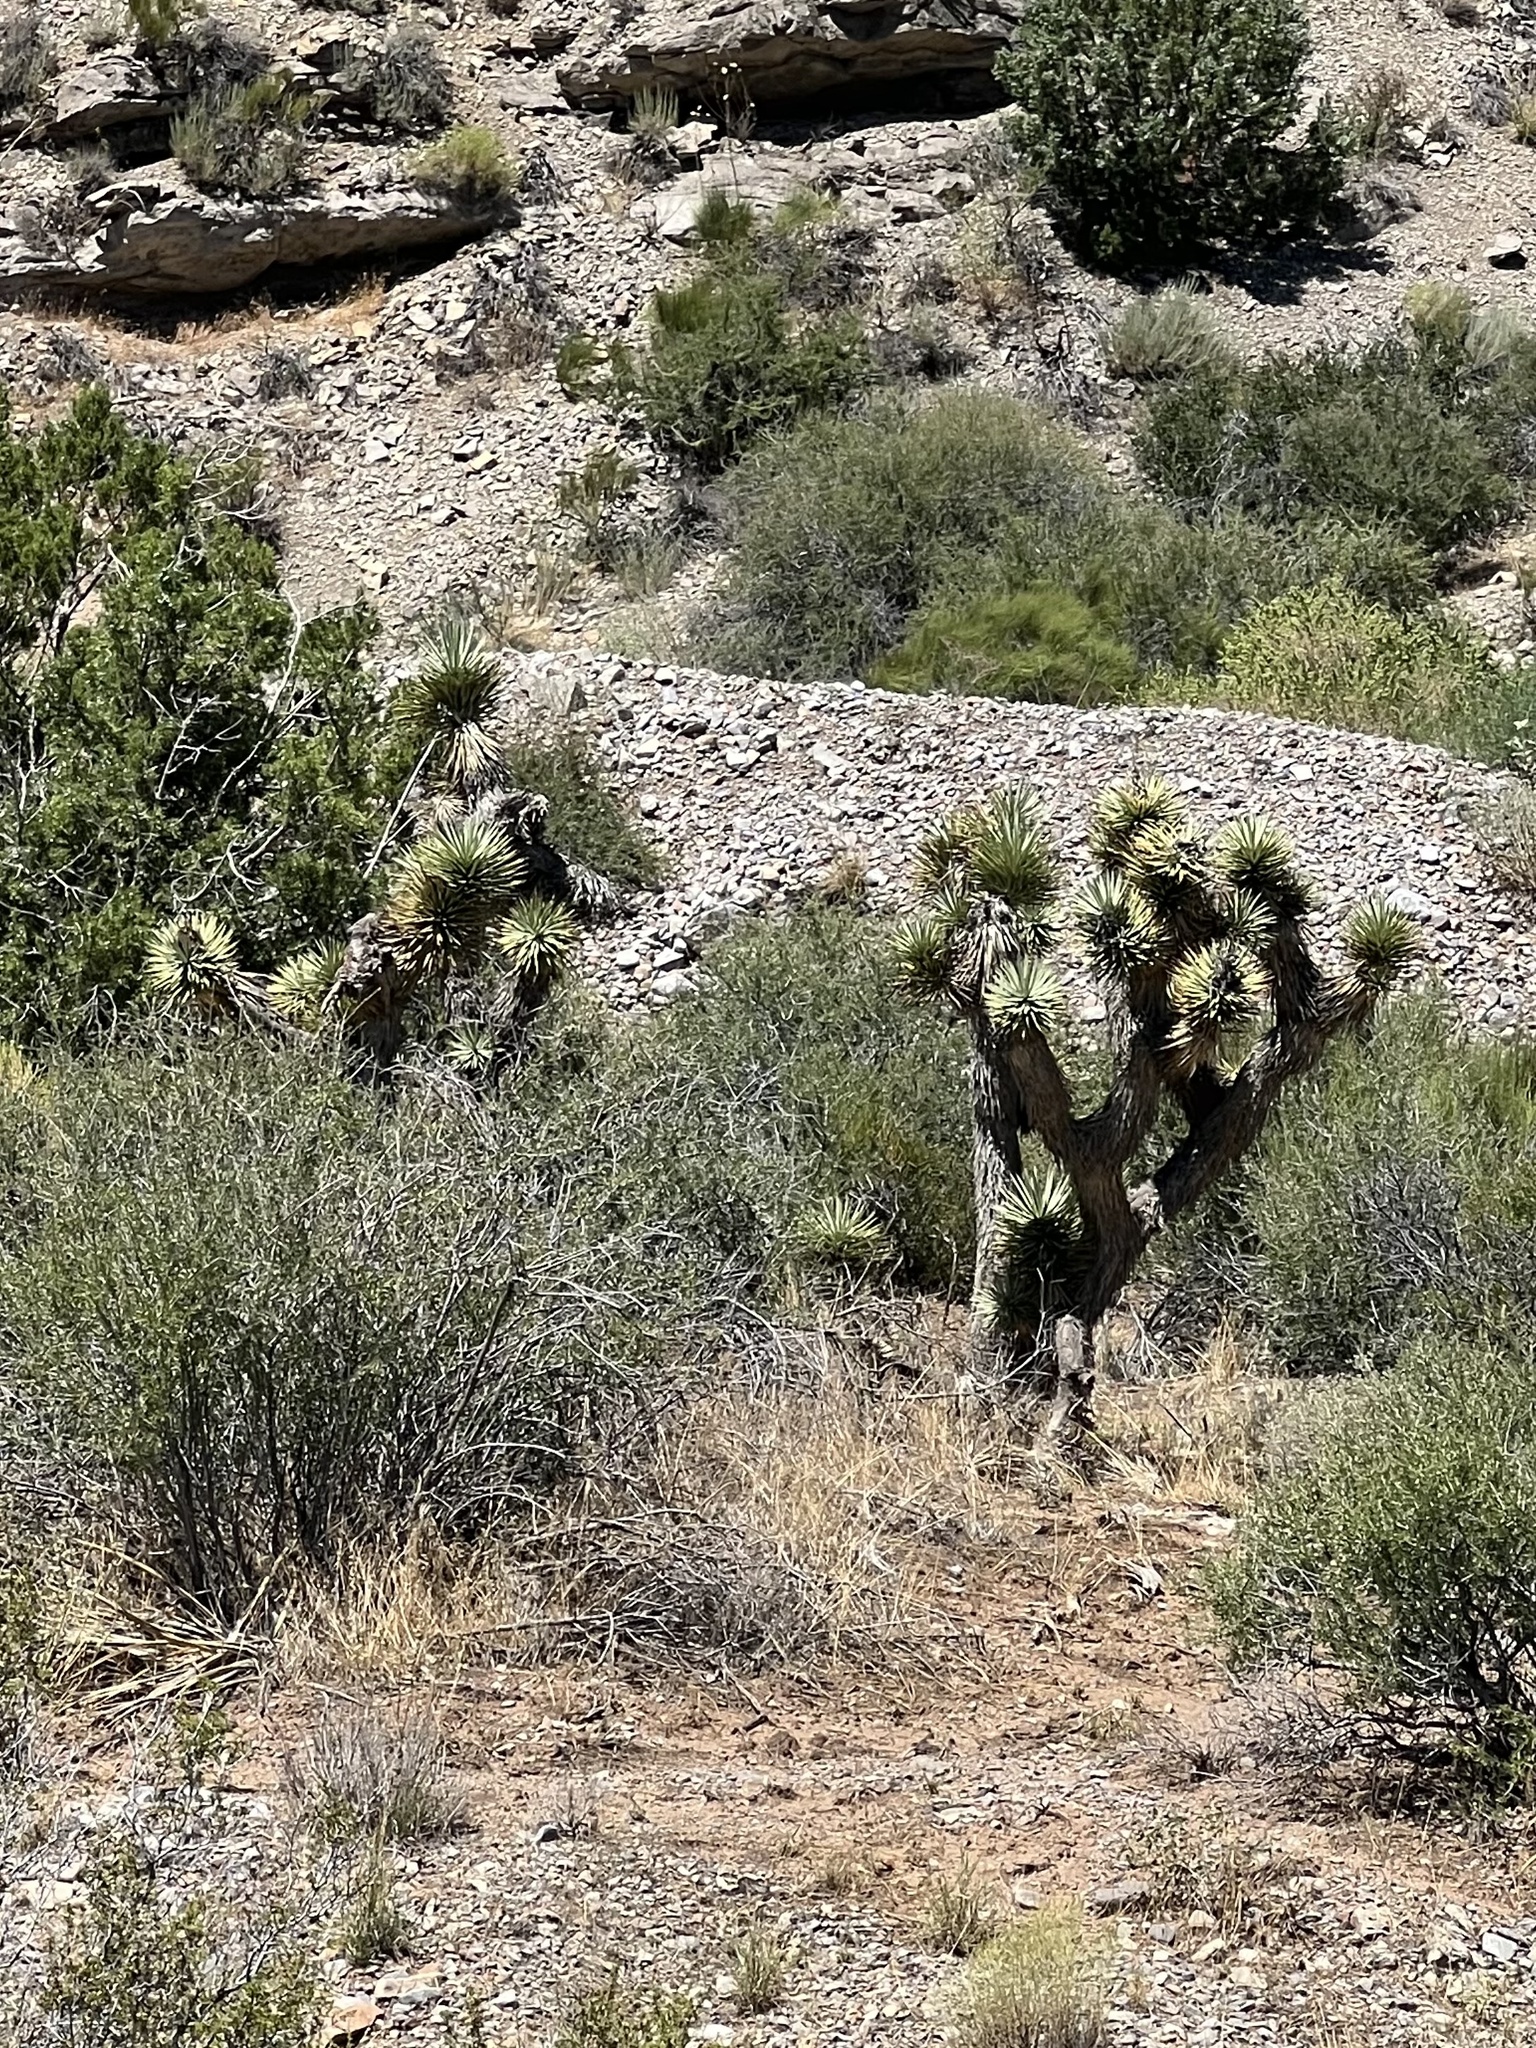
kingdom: Plantae
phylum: Tracheophyta
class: Liliopsida
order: Asparagales
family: Asparagaceae
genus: Yucca
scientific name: Yucca brevifolia
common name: Joshua tree
